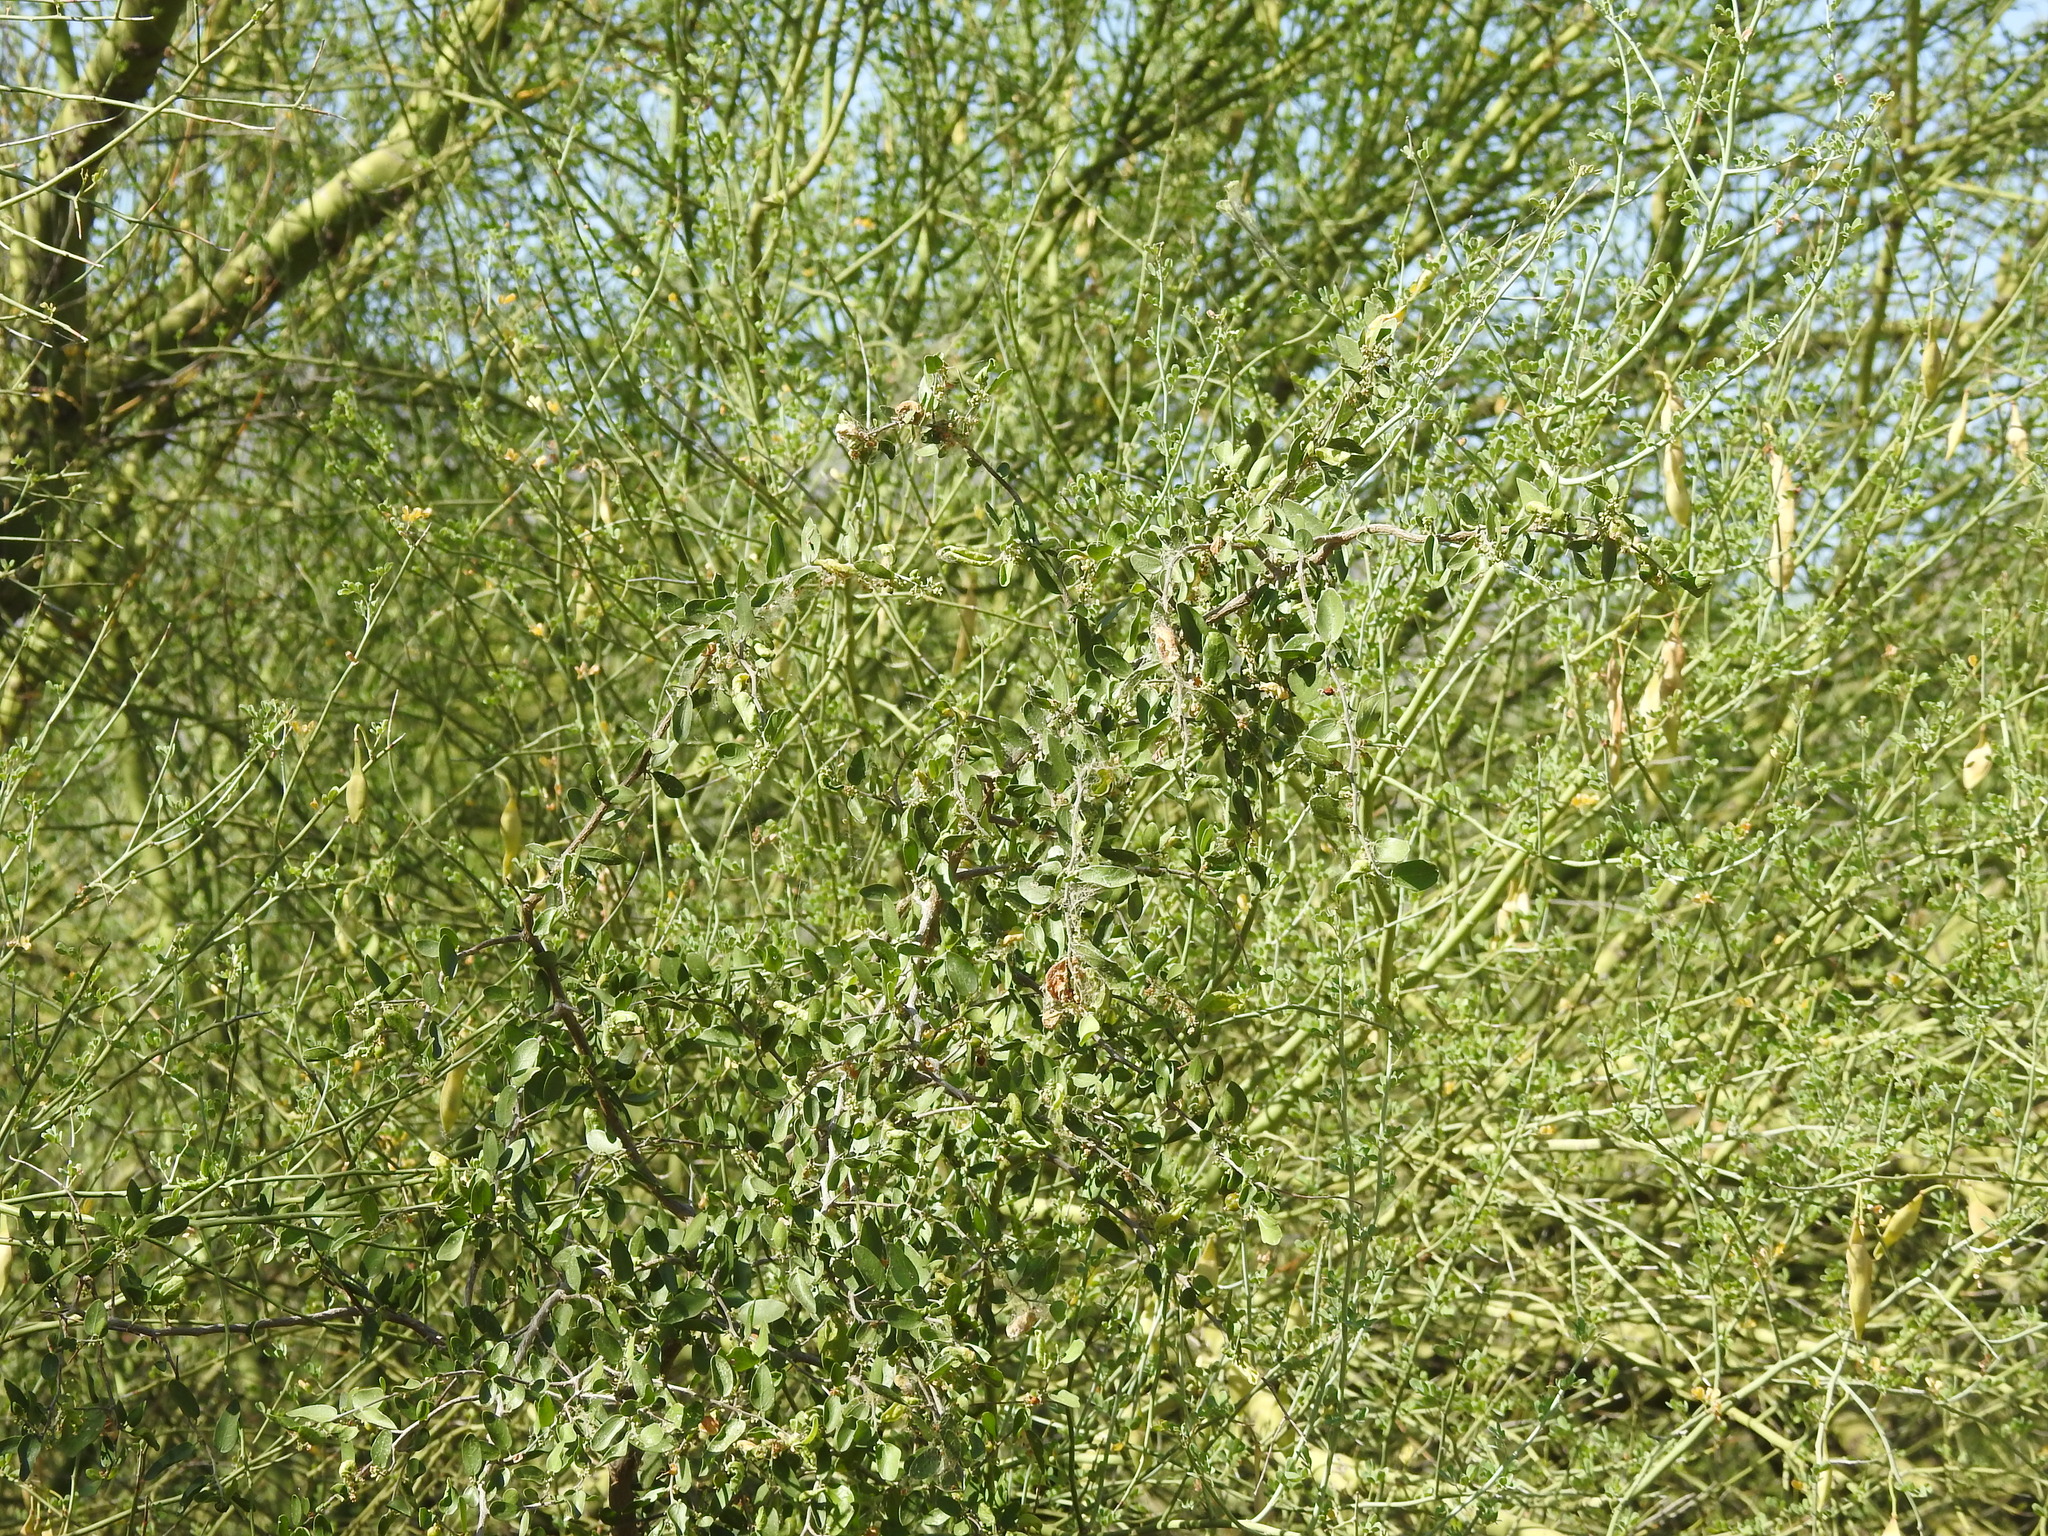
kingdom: Plantae
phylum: Tracheophyta
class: Magnoliopsida
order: Rosales
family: Cannabaceae
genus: Celtis
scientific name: Celtis pallida
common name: Desert hackberry
